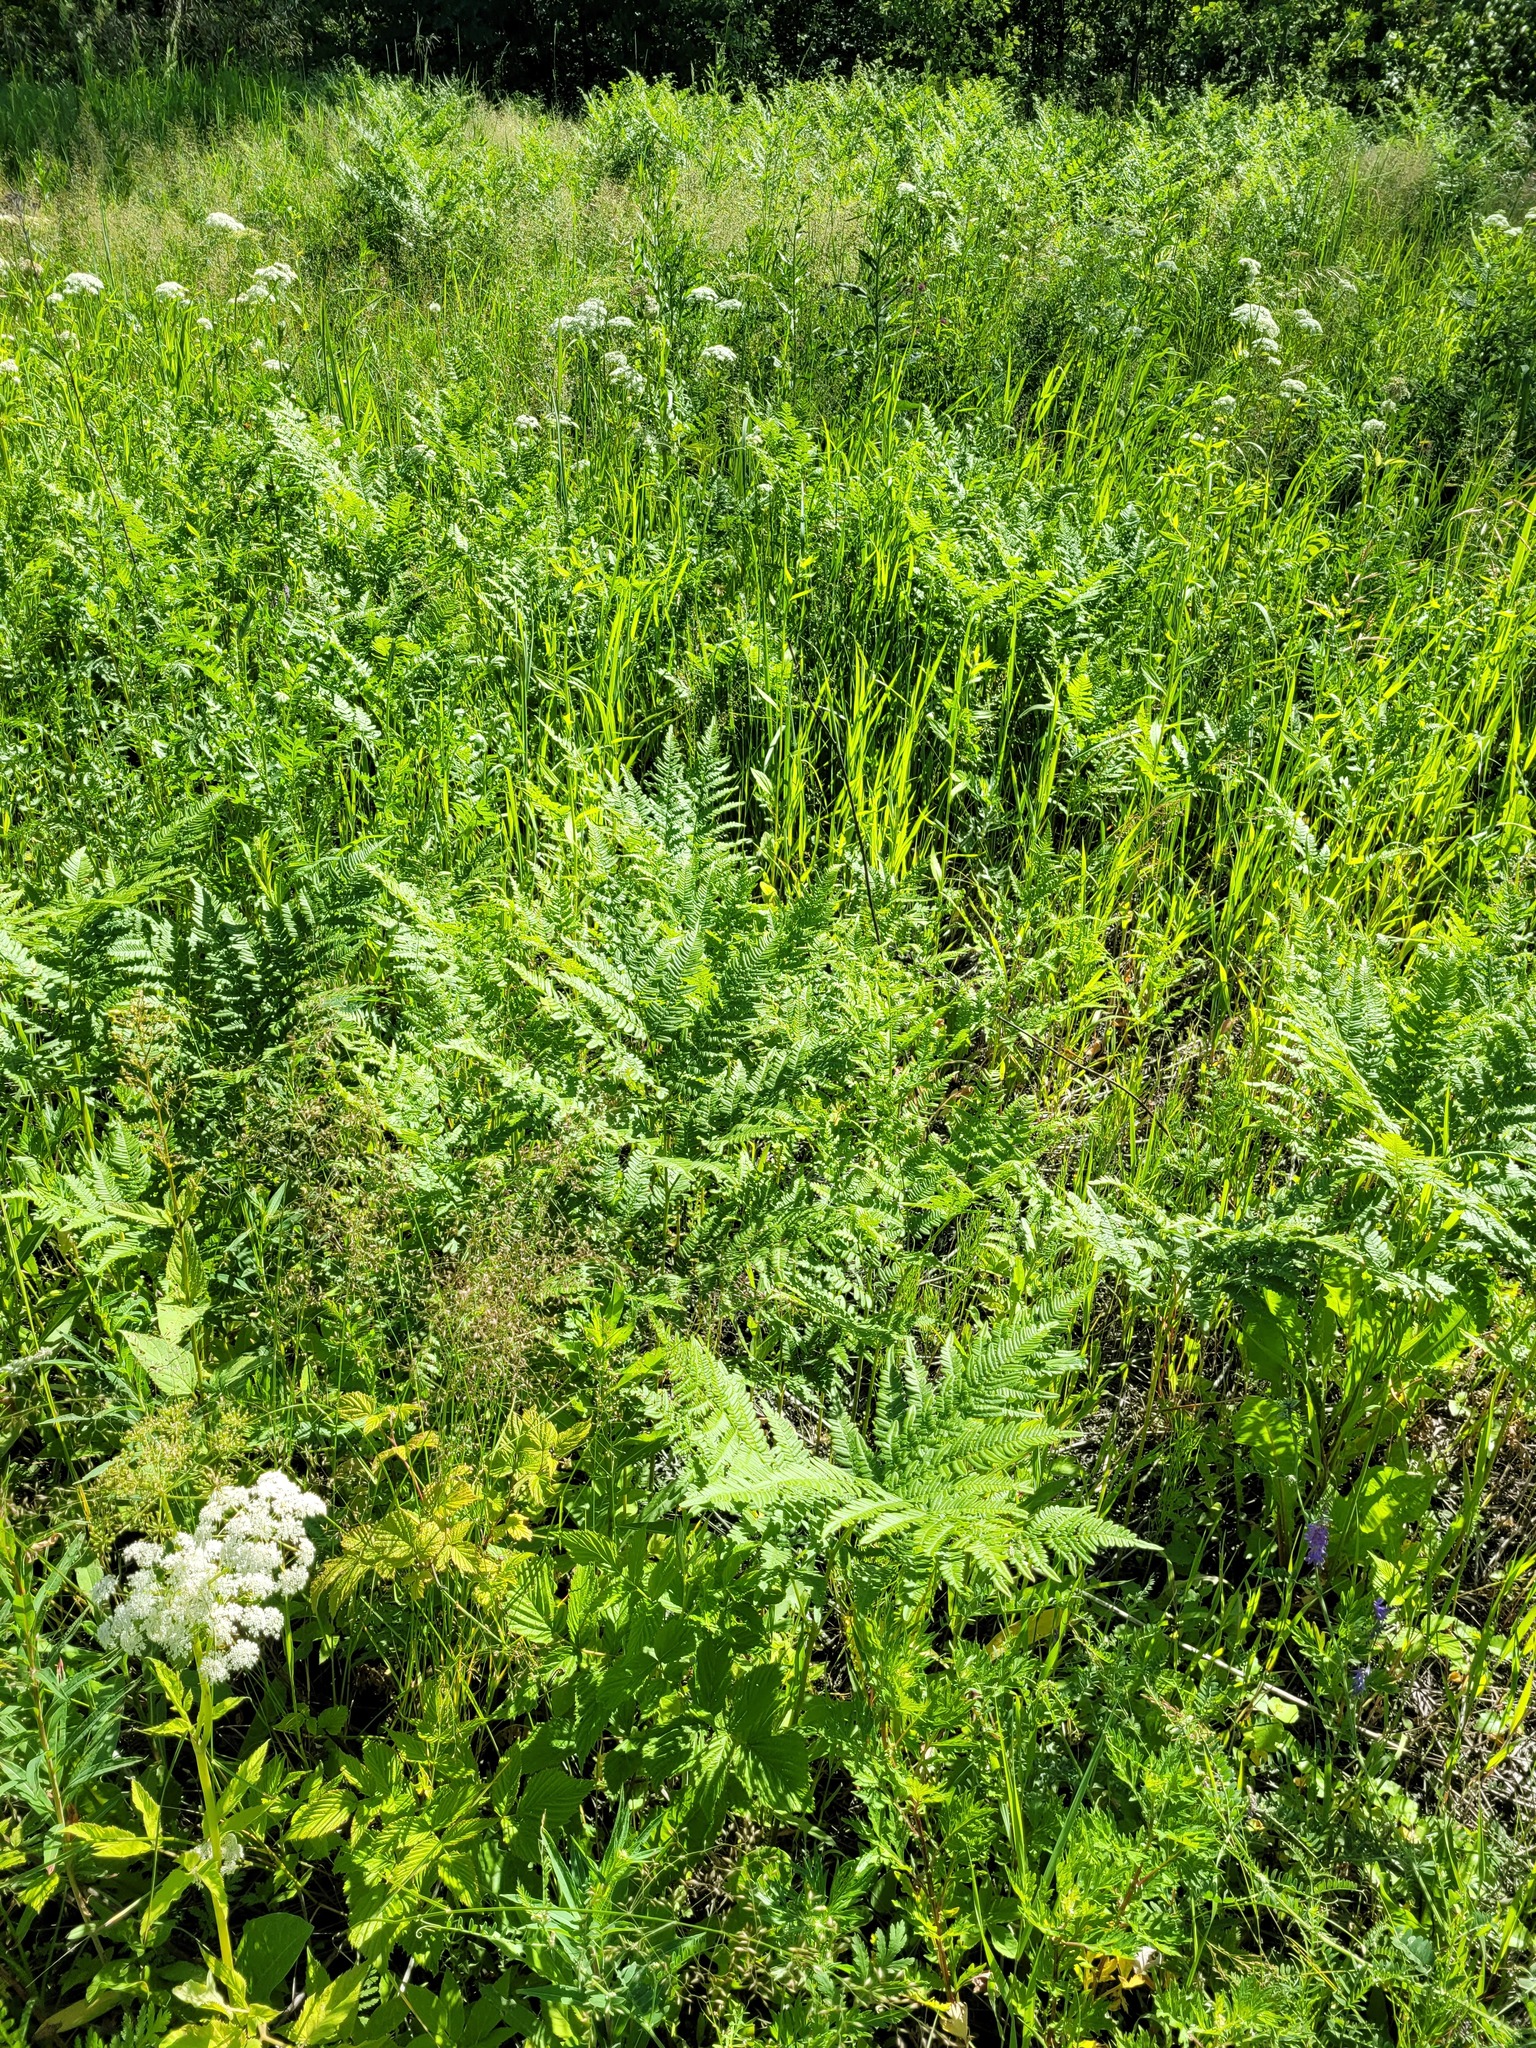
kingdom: Plantae
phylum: Tracheophyta
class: Polypodiopsida
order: Polypodiales
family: Dennstaedtiaceae
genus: Pteridium
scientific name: Pteridium aquilinum
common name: Bracken
